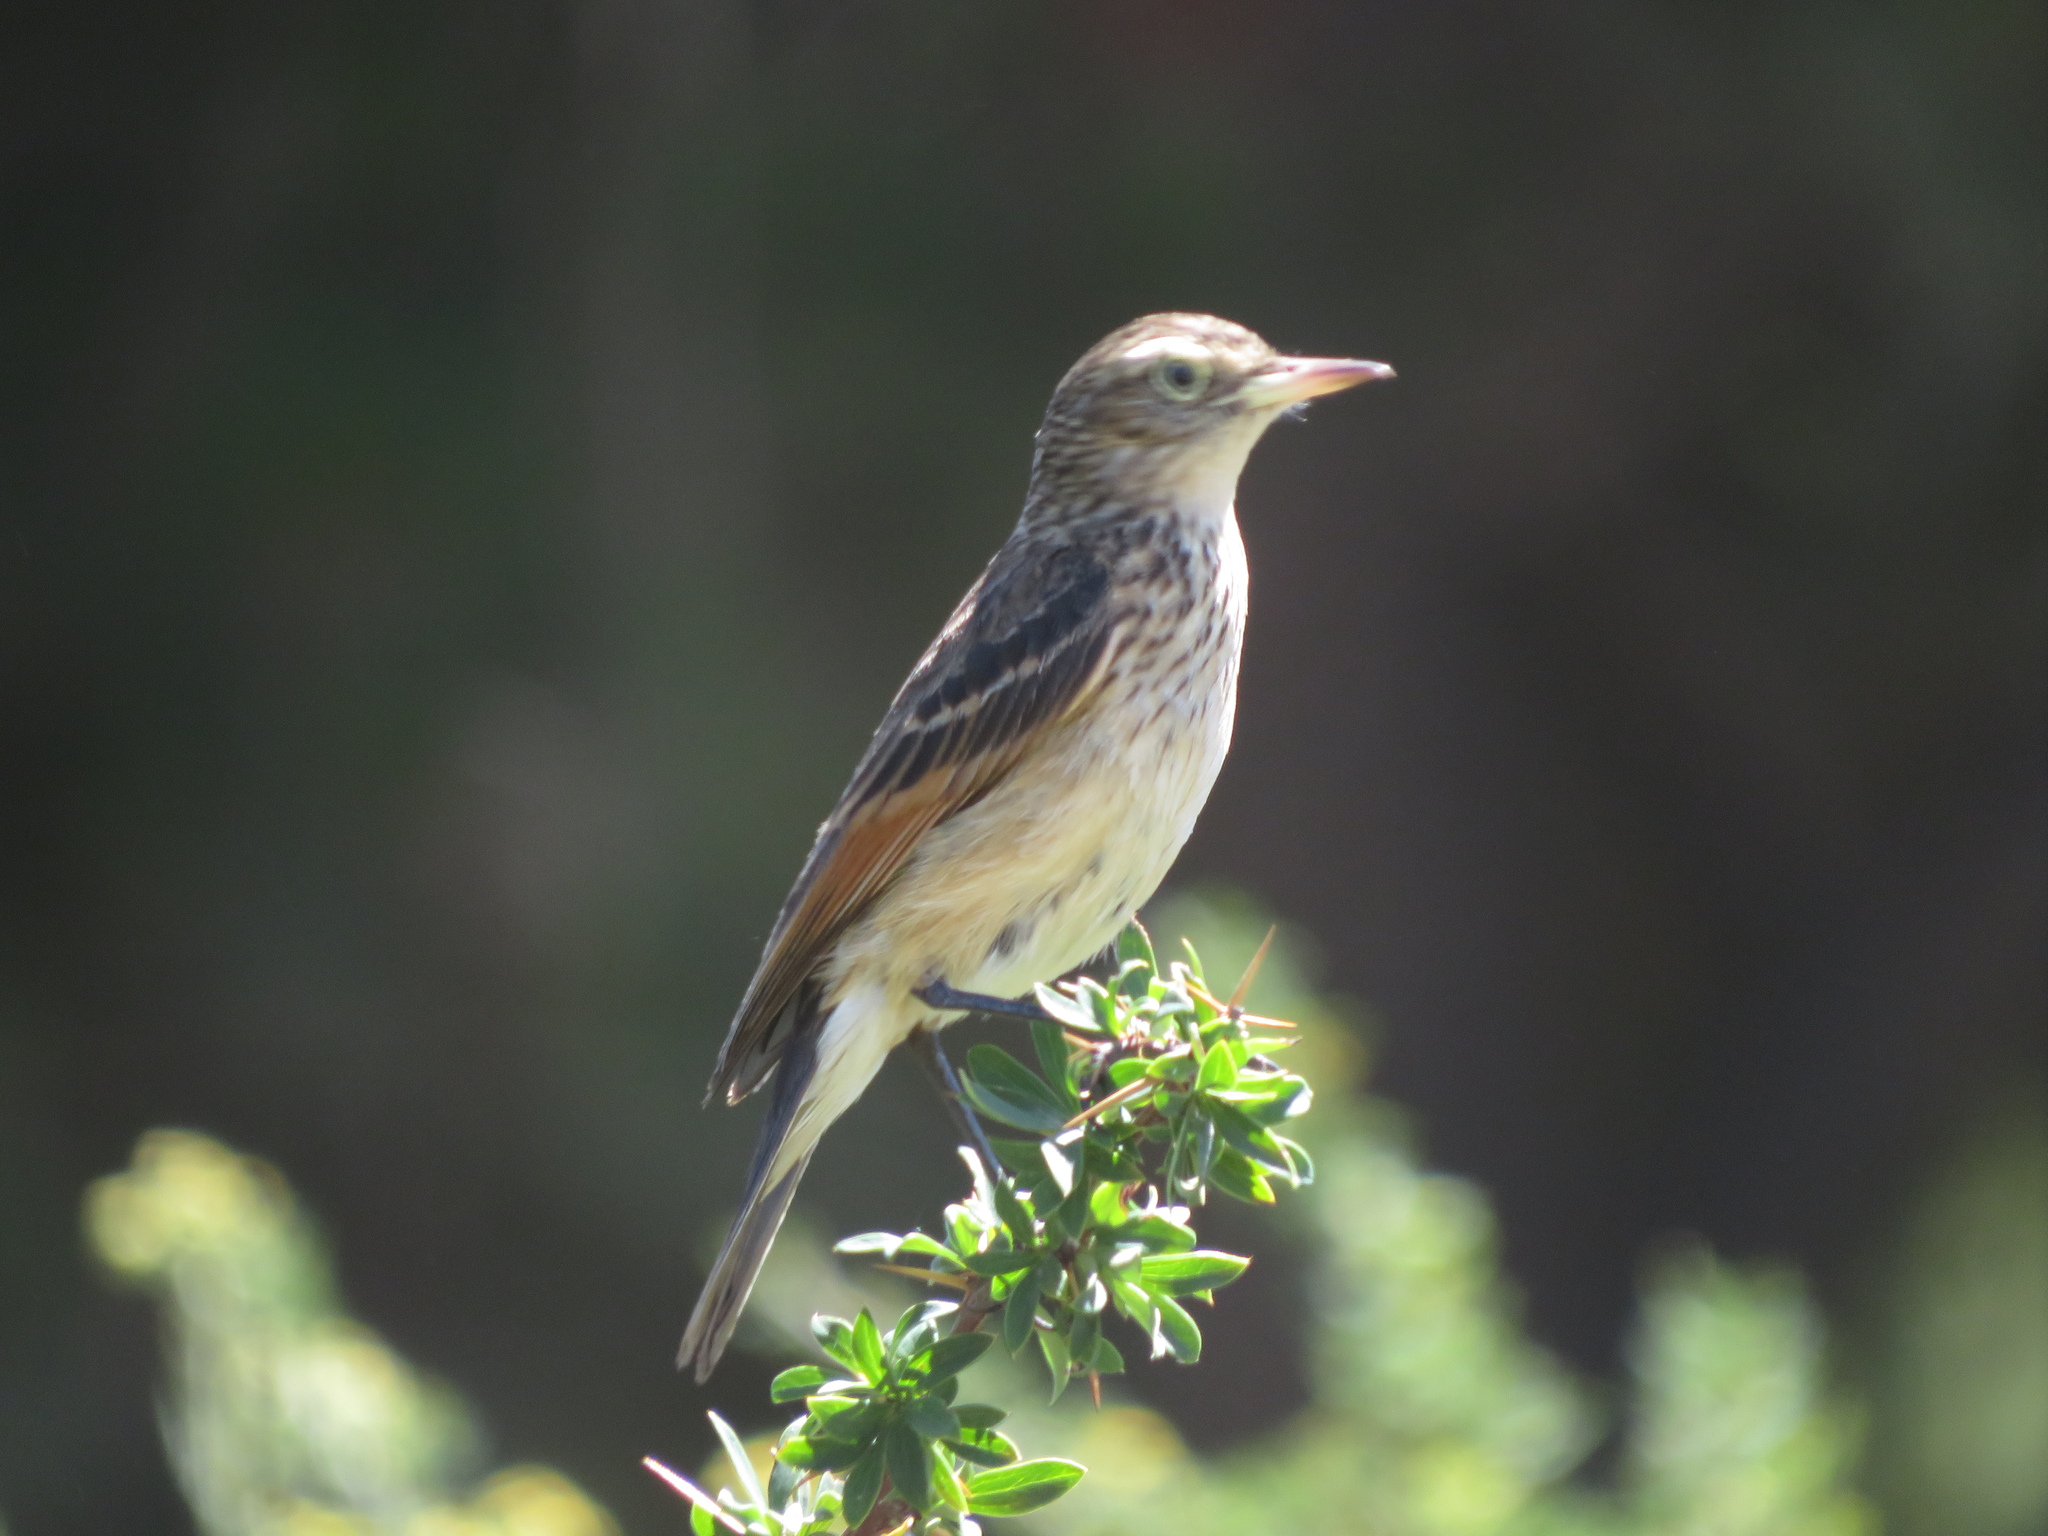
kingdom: Animalia
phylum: Chordata
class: Aves
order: Passeriformes
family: Tyrannidae
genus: Hymenops
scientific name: Hymenops perspicillatus
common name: Spectacled tyrant
